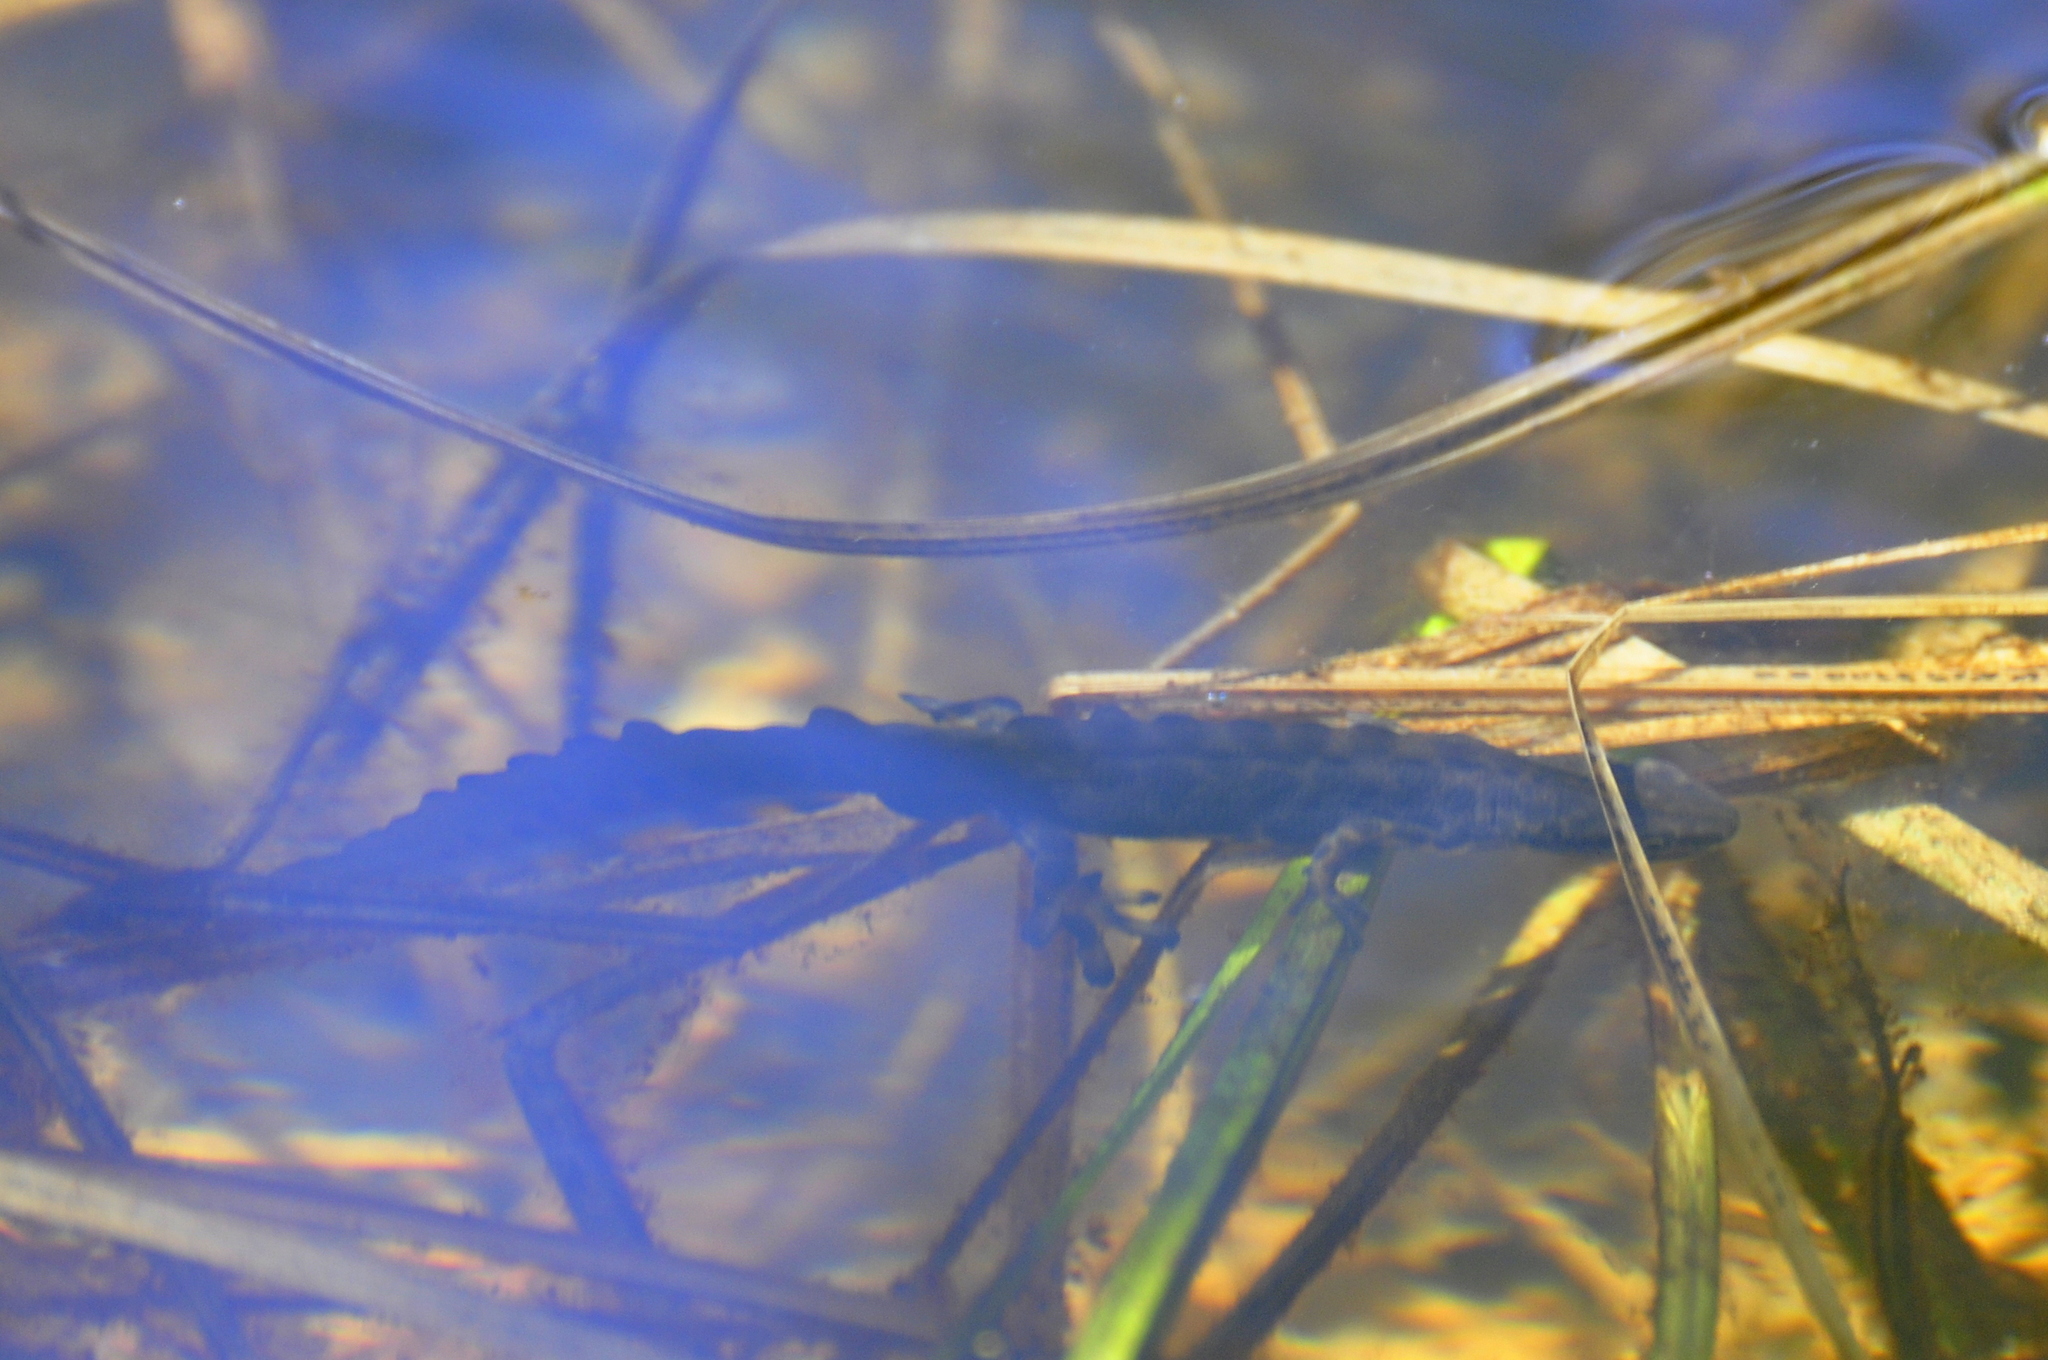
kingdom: Animalia
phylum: Chordata
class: Amphibia
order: Caudata
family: Salamandridae
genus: Lissotriton
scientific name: Lissotriton vulgaris
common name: Smooth newt
